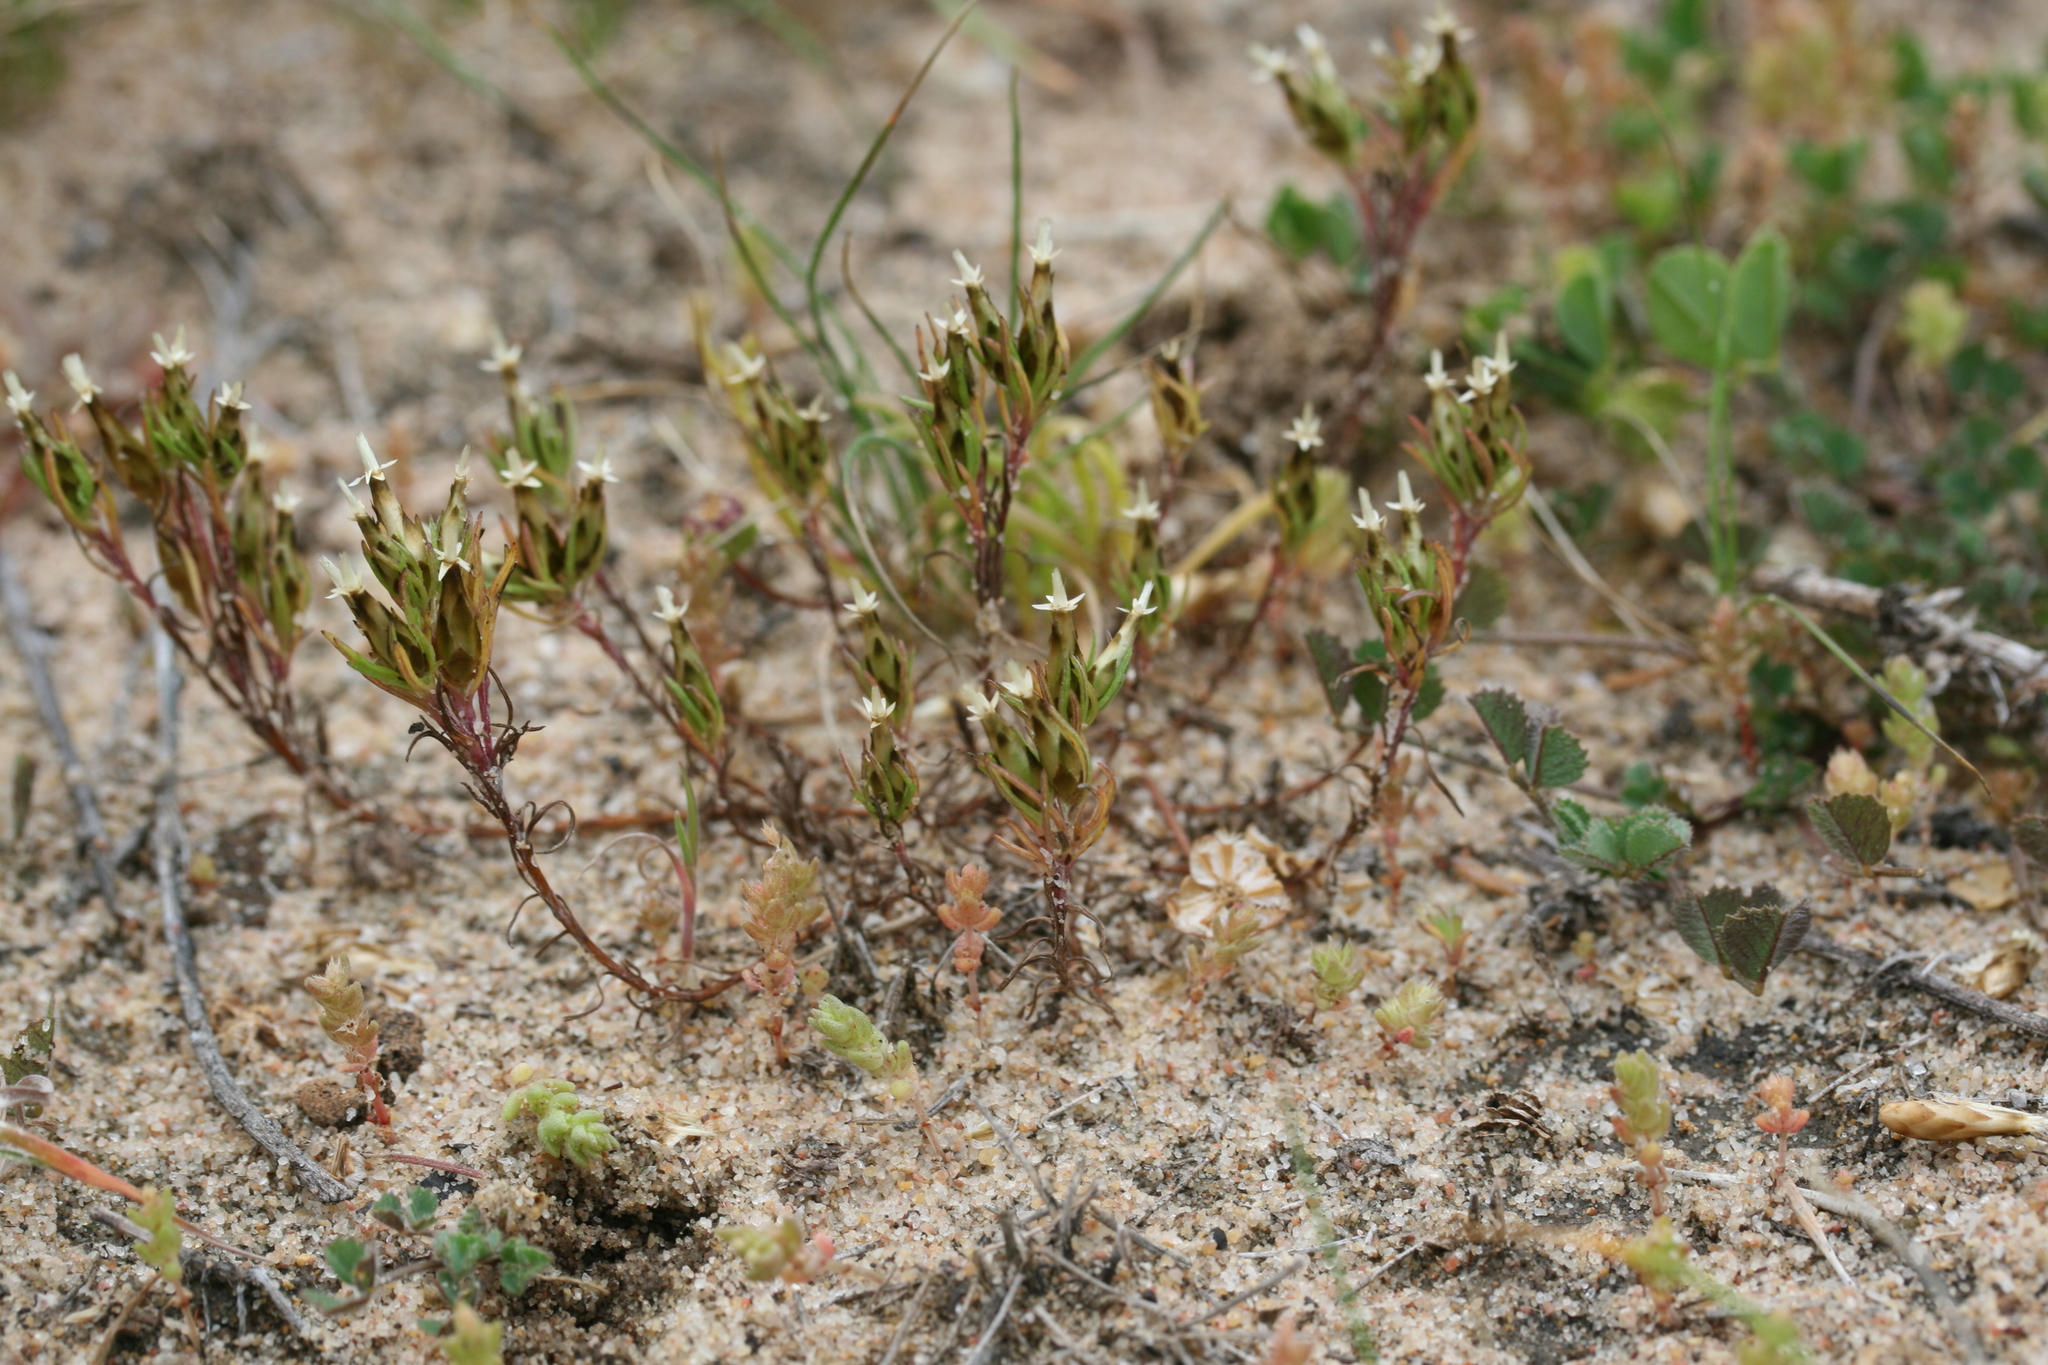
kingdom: Plantae
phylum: Tracheophyta
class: Magnoliopsida
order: Asterales
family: Asteraceae
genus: Rhodanthe
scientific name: Rhodanthe pygmaea
